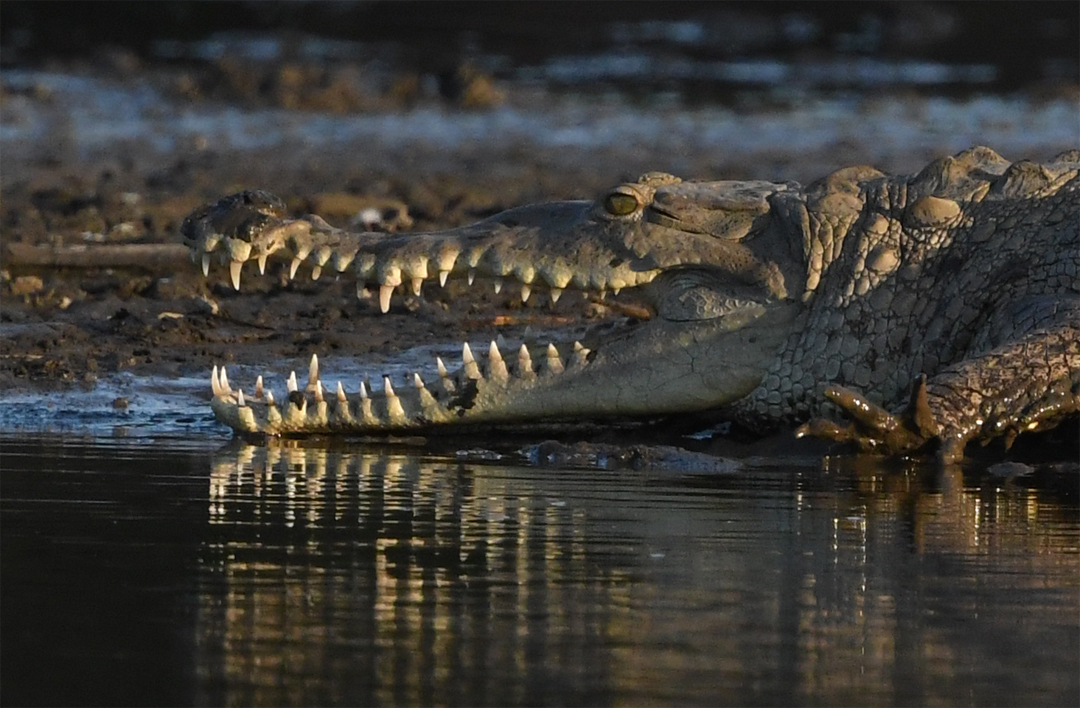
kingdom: Animalia
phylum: Chordata
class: Crocodylia
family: Crocodylidae
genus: Crocodylus
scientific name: Crocodylus acutus
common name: American crocodile
